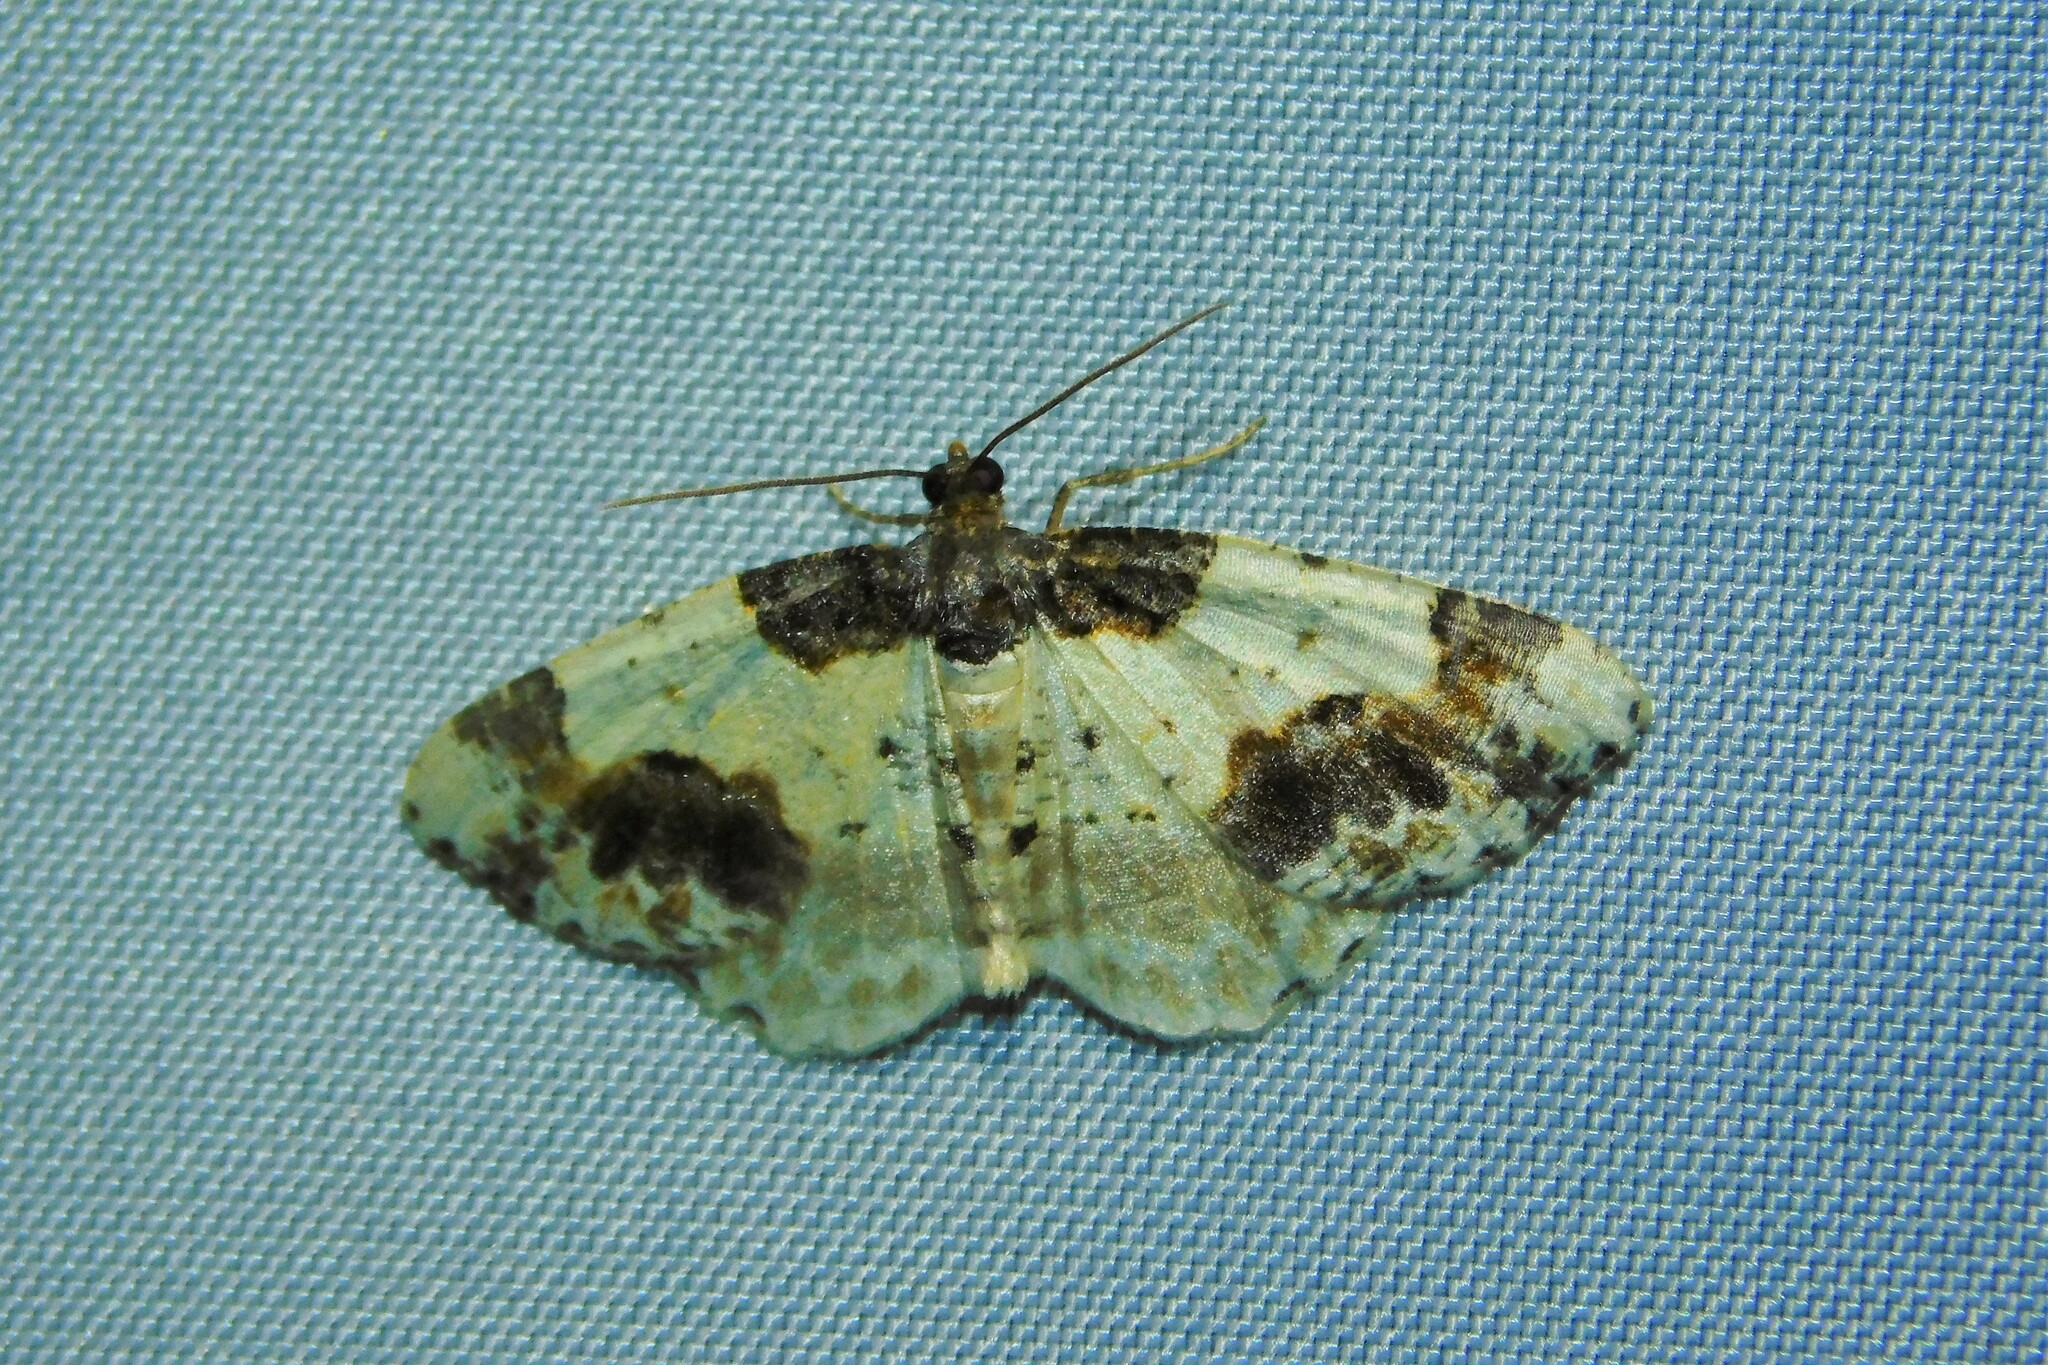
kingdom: Animalia
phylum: Arthropoda
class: Insecta
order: Lepidoptera
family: Geometridae
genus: Ligdia
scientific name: Ligdia adustata
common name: Scorched carpet
